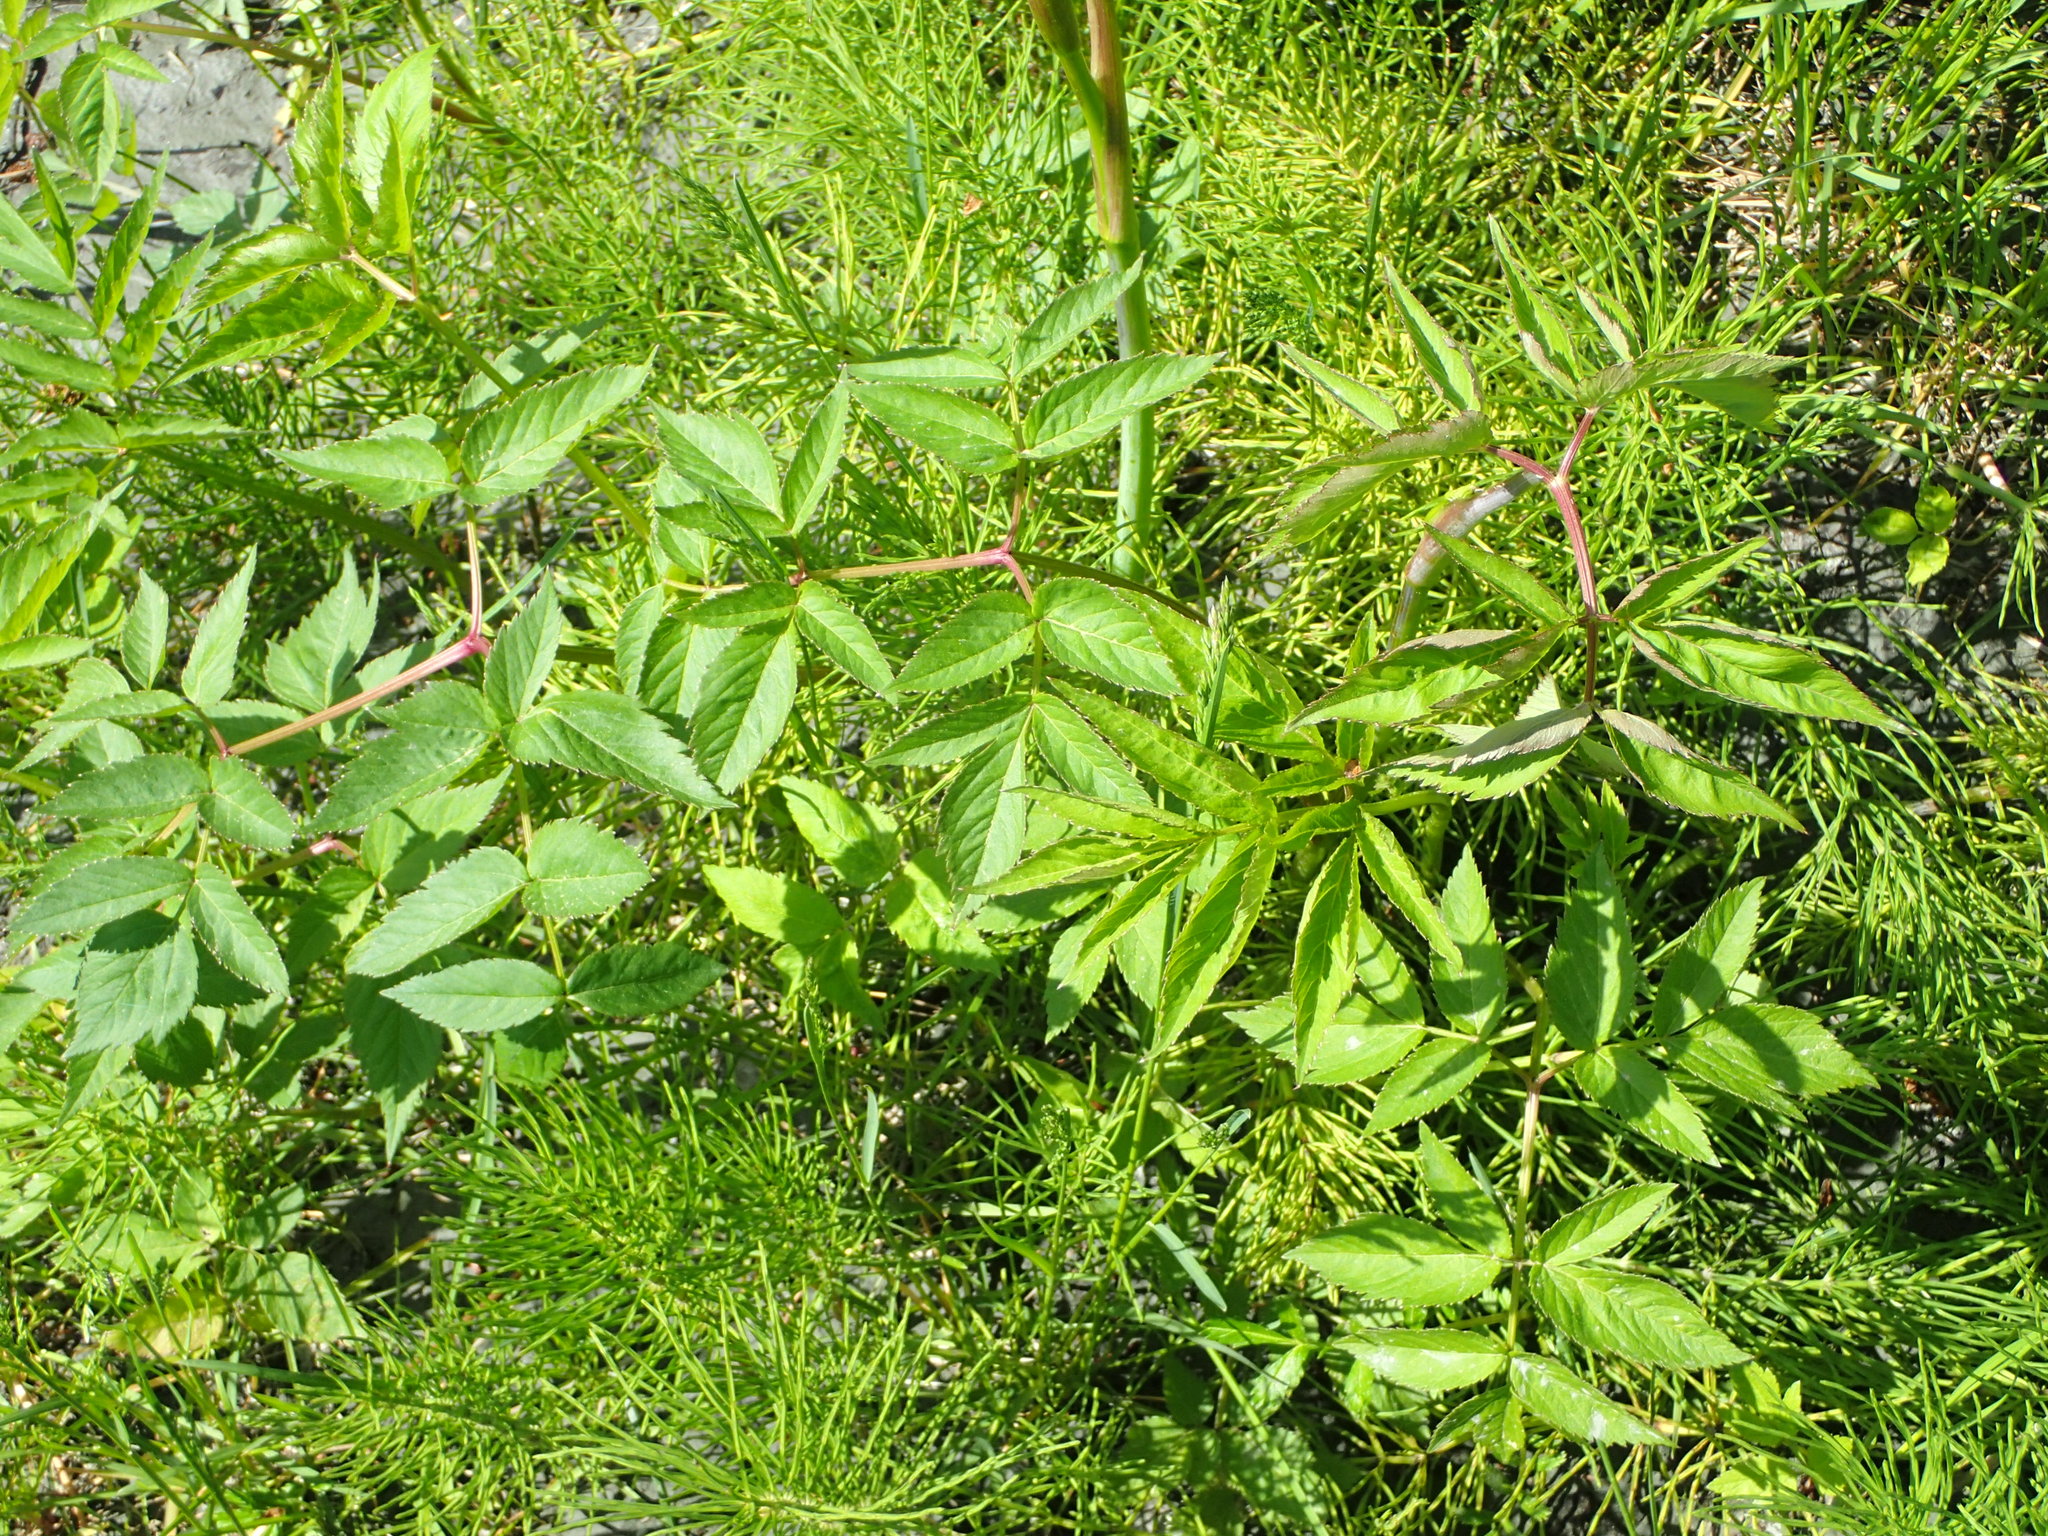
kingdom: Plantae
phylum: Tracheophyta
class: Magnoliopsida
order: Apiales
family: Apiaceae
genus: Angelica
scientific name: Angelica genuflexa
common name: Kneeling angelica
